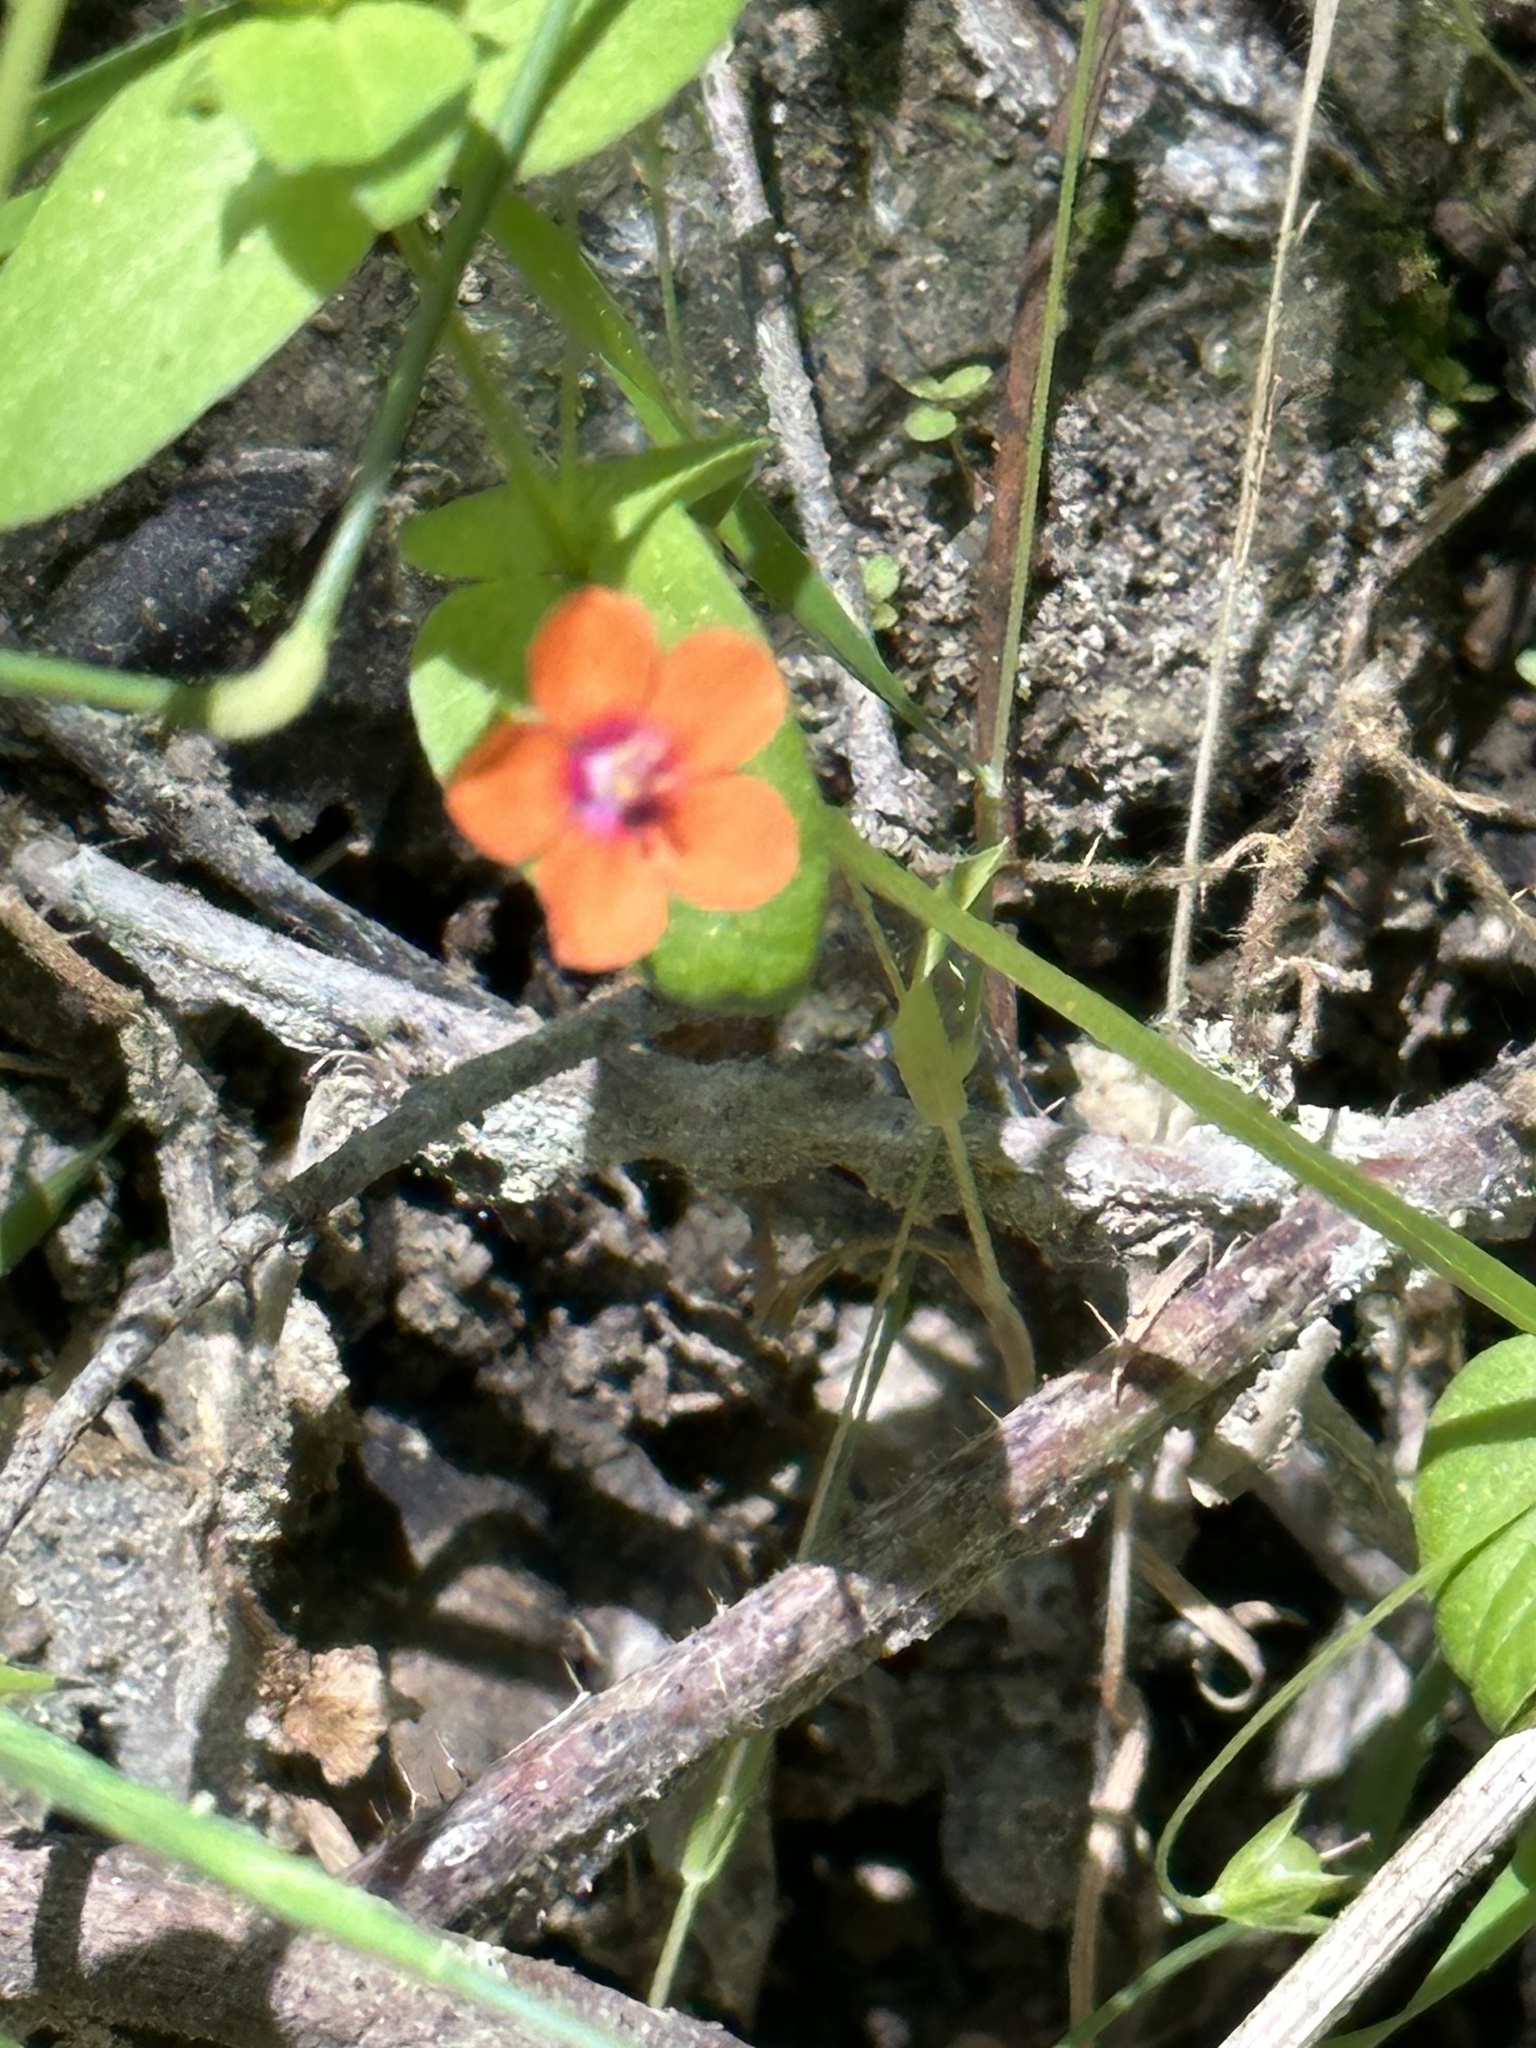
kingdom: Plantae
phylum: Tracheophyta
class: Magnoliopsida
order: Ericales
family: Primulaceae
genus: Lysimachia
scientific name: Lysimachia arvensis
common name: Scarlet pimpernel
